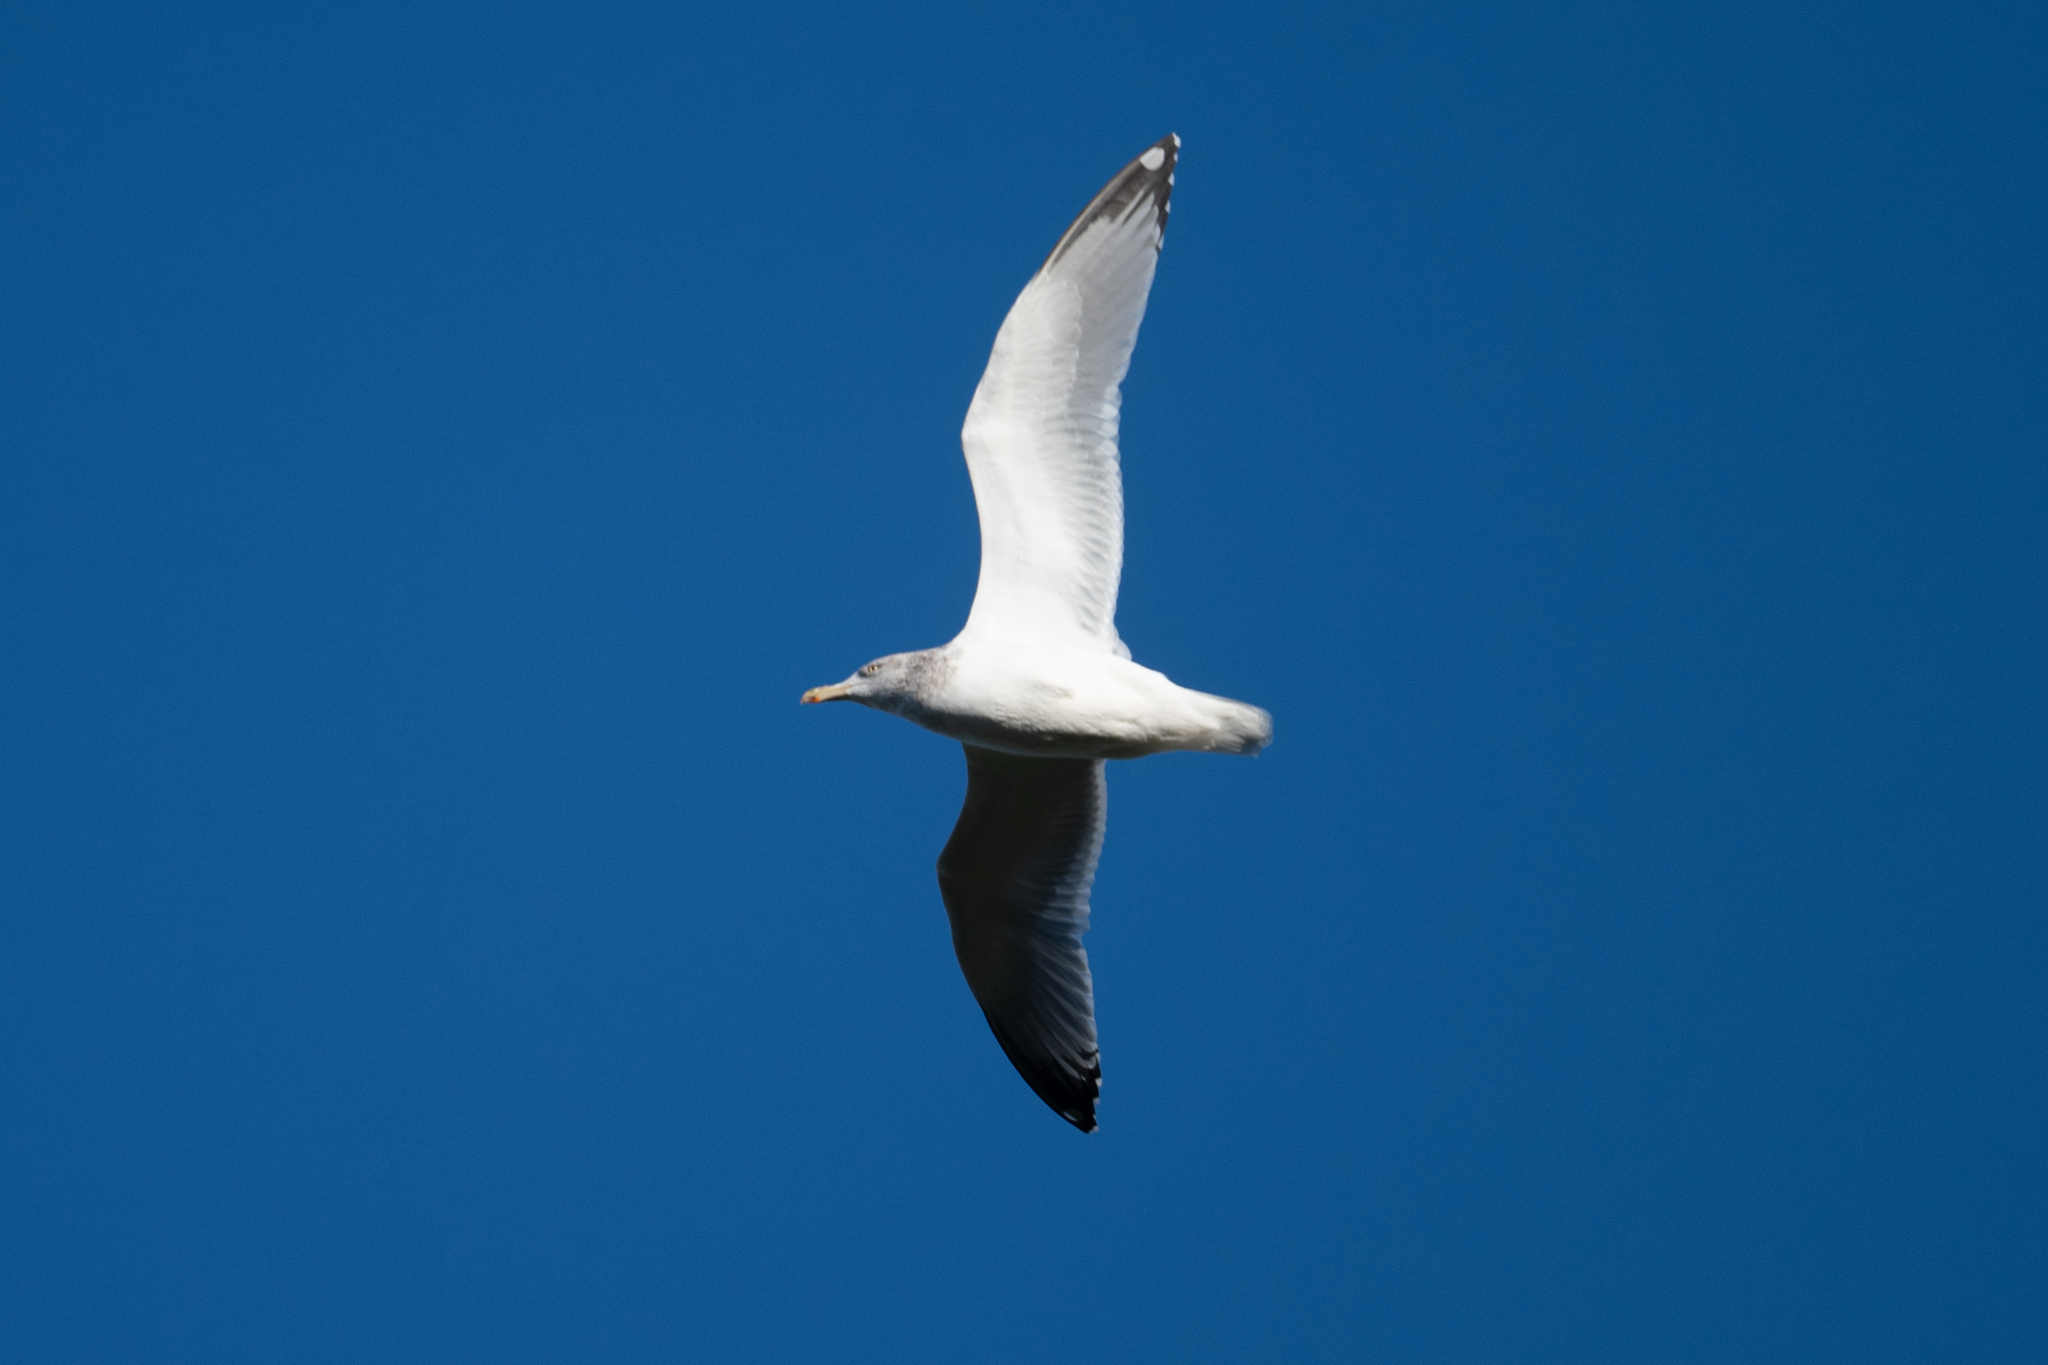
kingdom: Animalia
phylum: Chordata
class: Aves
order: Charadriiformes
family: Laridae
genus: Larus
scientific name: Larus argentatus
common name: Herring gull
